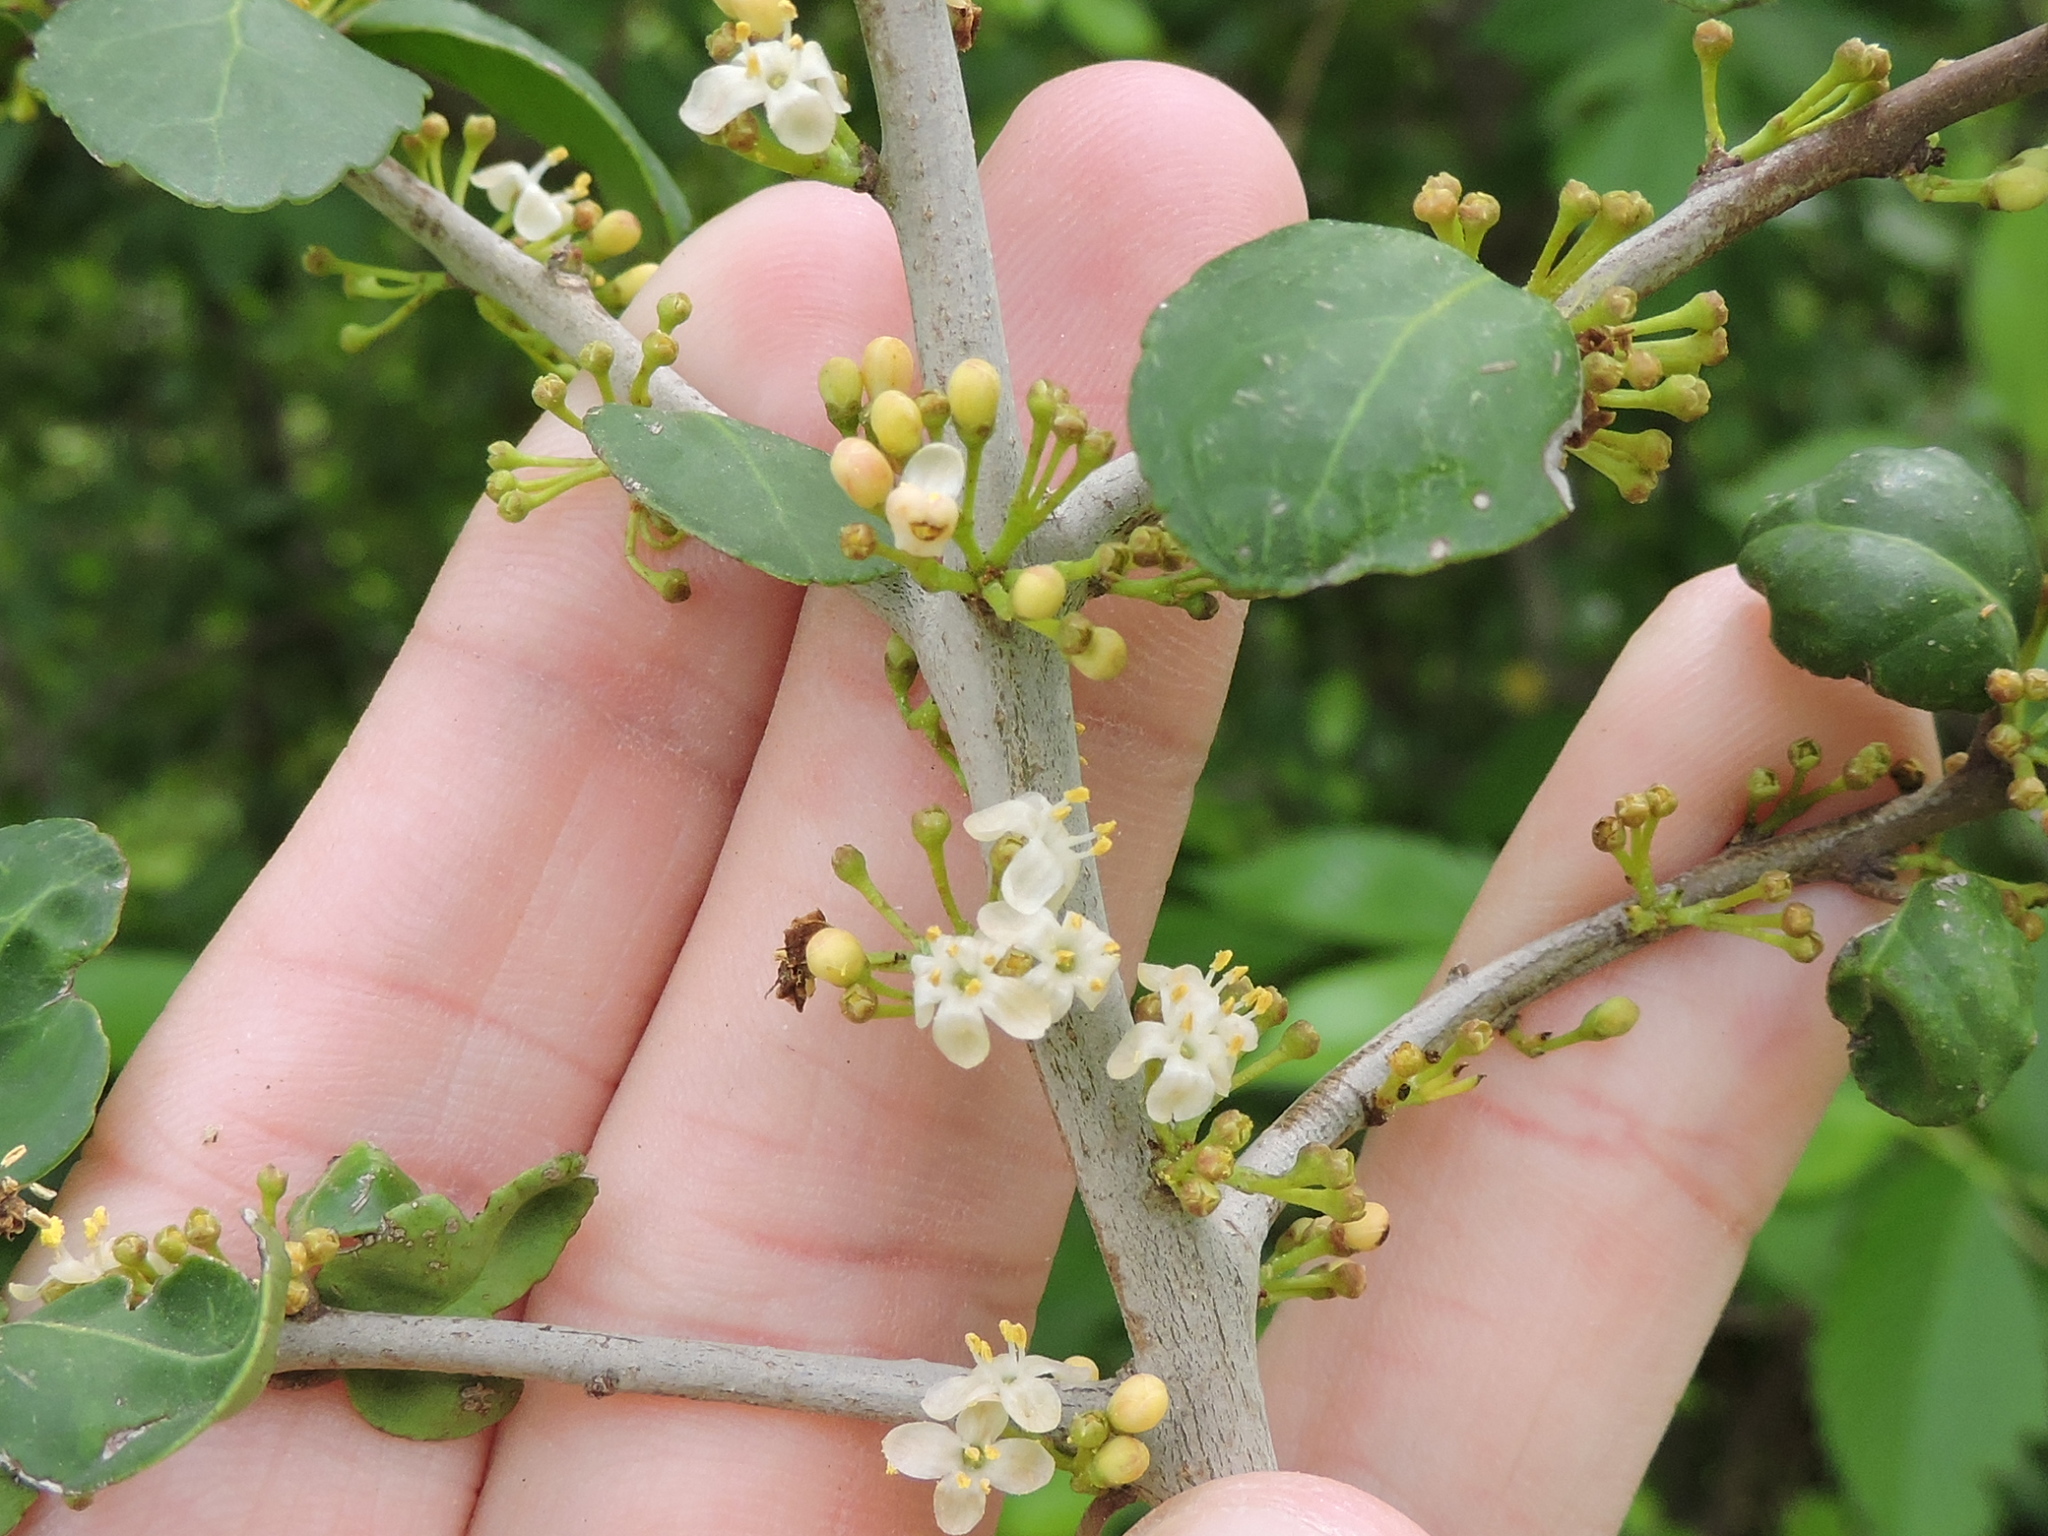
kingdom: Plantae
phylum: Tracheophyta
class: Magnoliopsida
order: Aquifoliales
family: Aquifoliaceae
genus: Ilex
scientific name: Ilex vomitoria
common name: Yaupon holly
